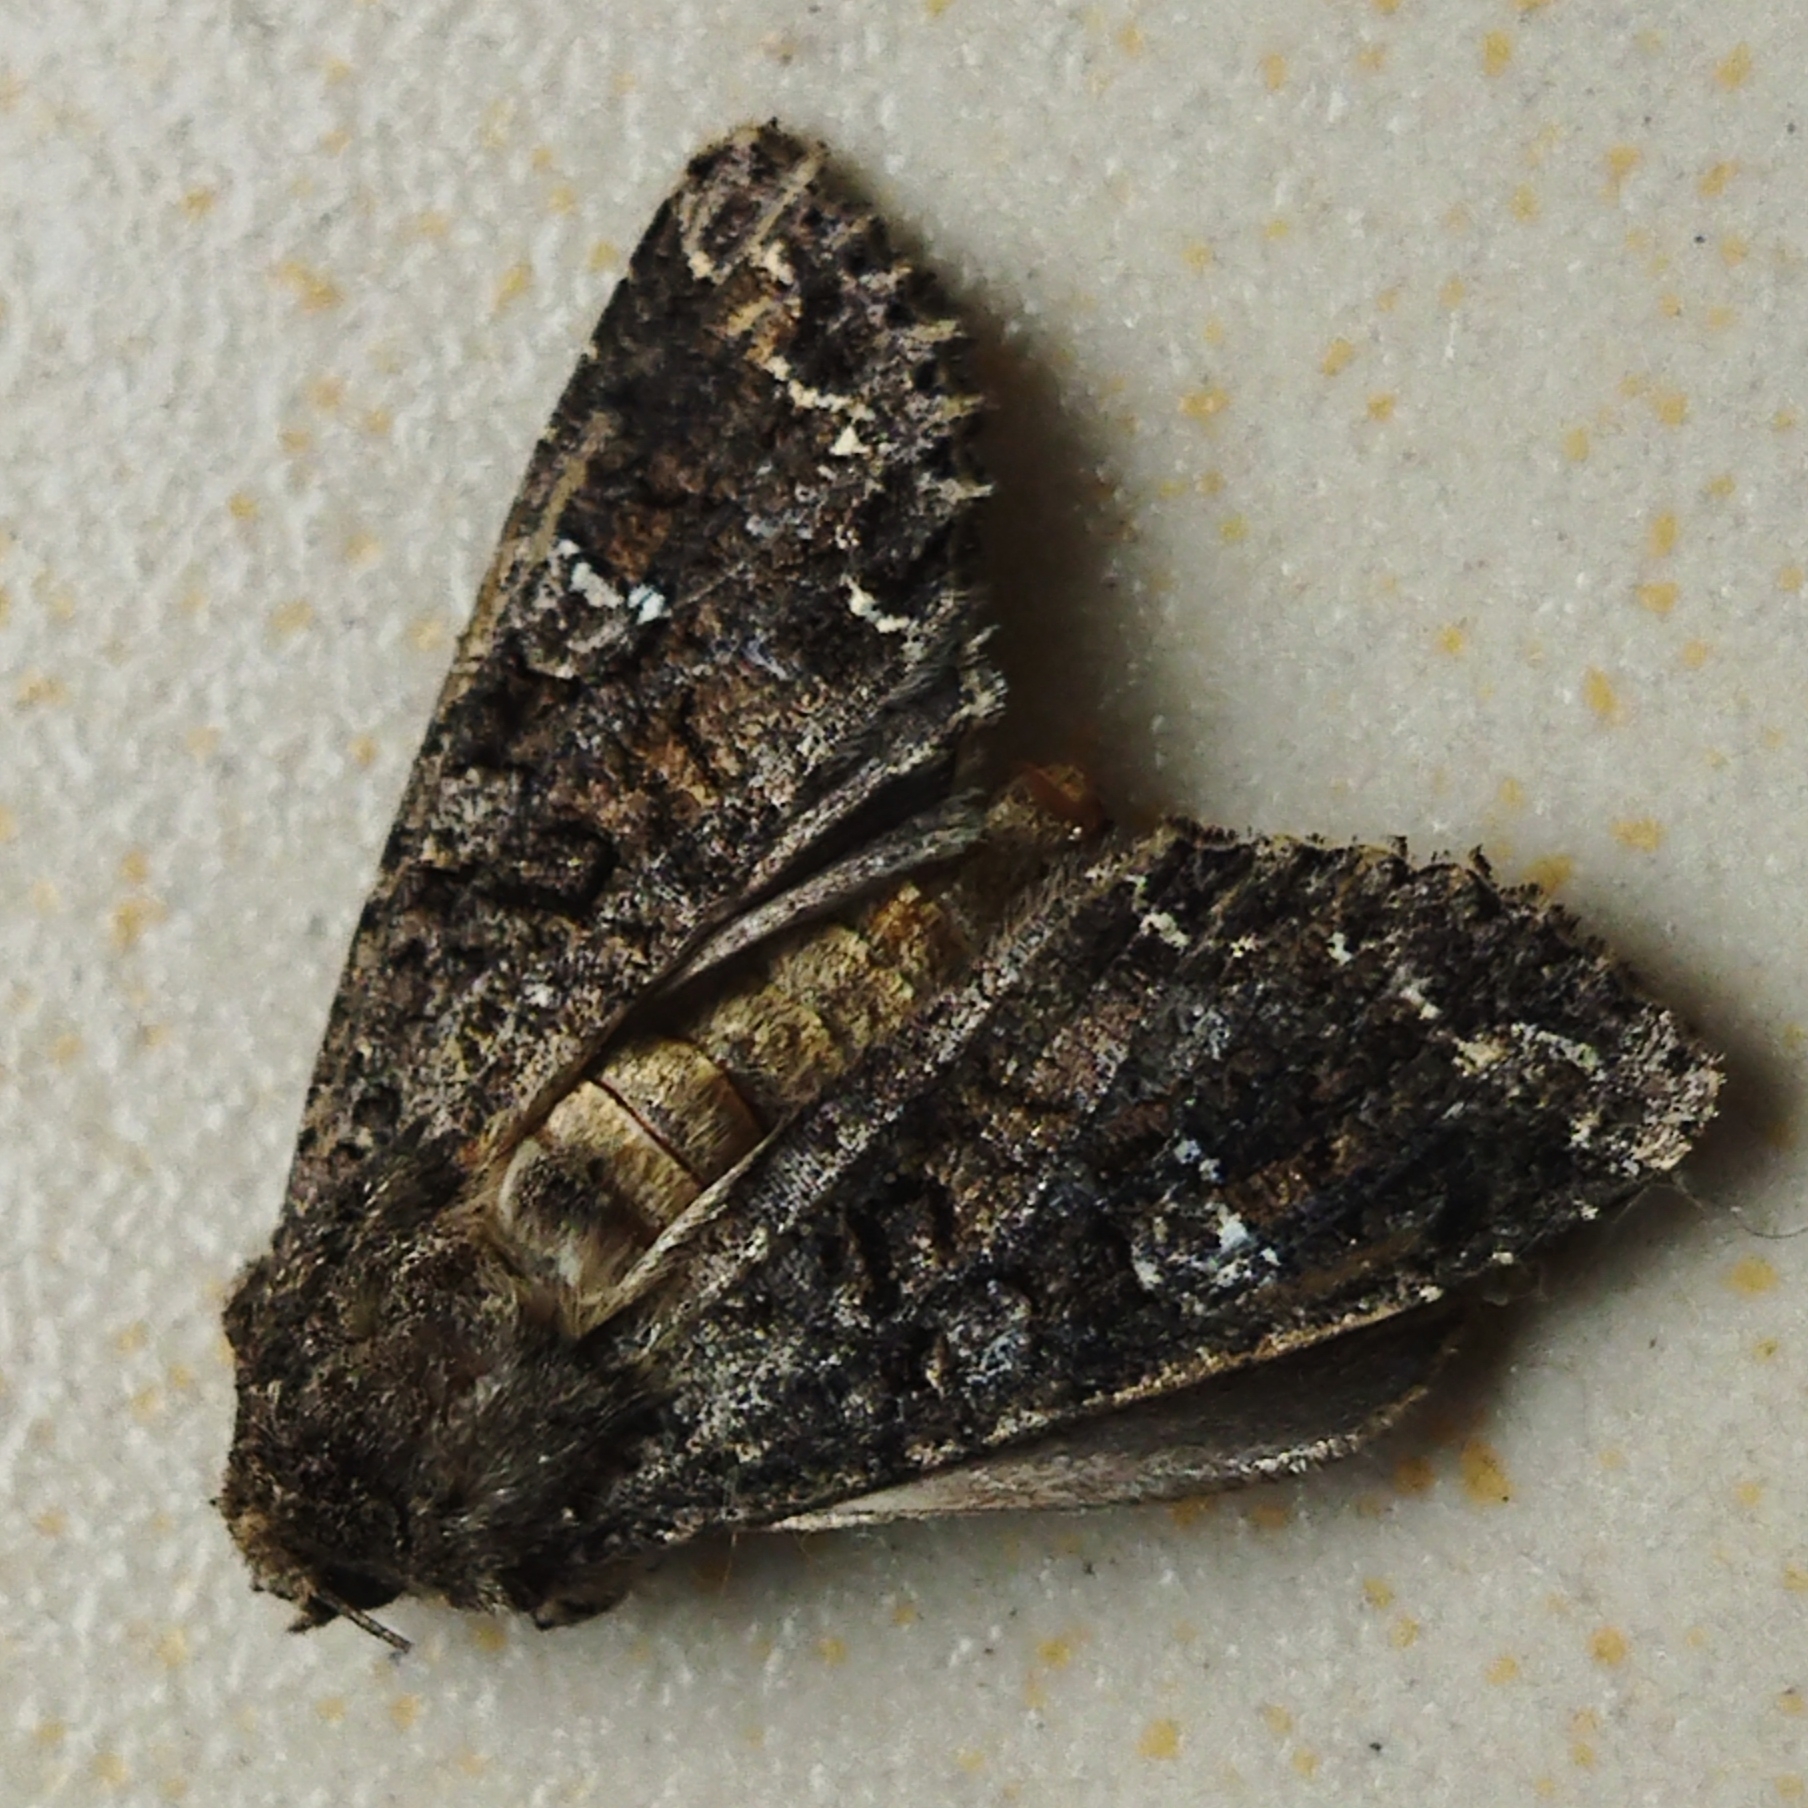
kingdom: Animalia
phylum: Arthropoda
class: Insecta
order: Lepidoptera
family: Noctuidae
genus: Mamestra
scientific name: Mamestra brassicae
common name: Cabbage moth
